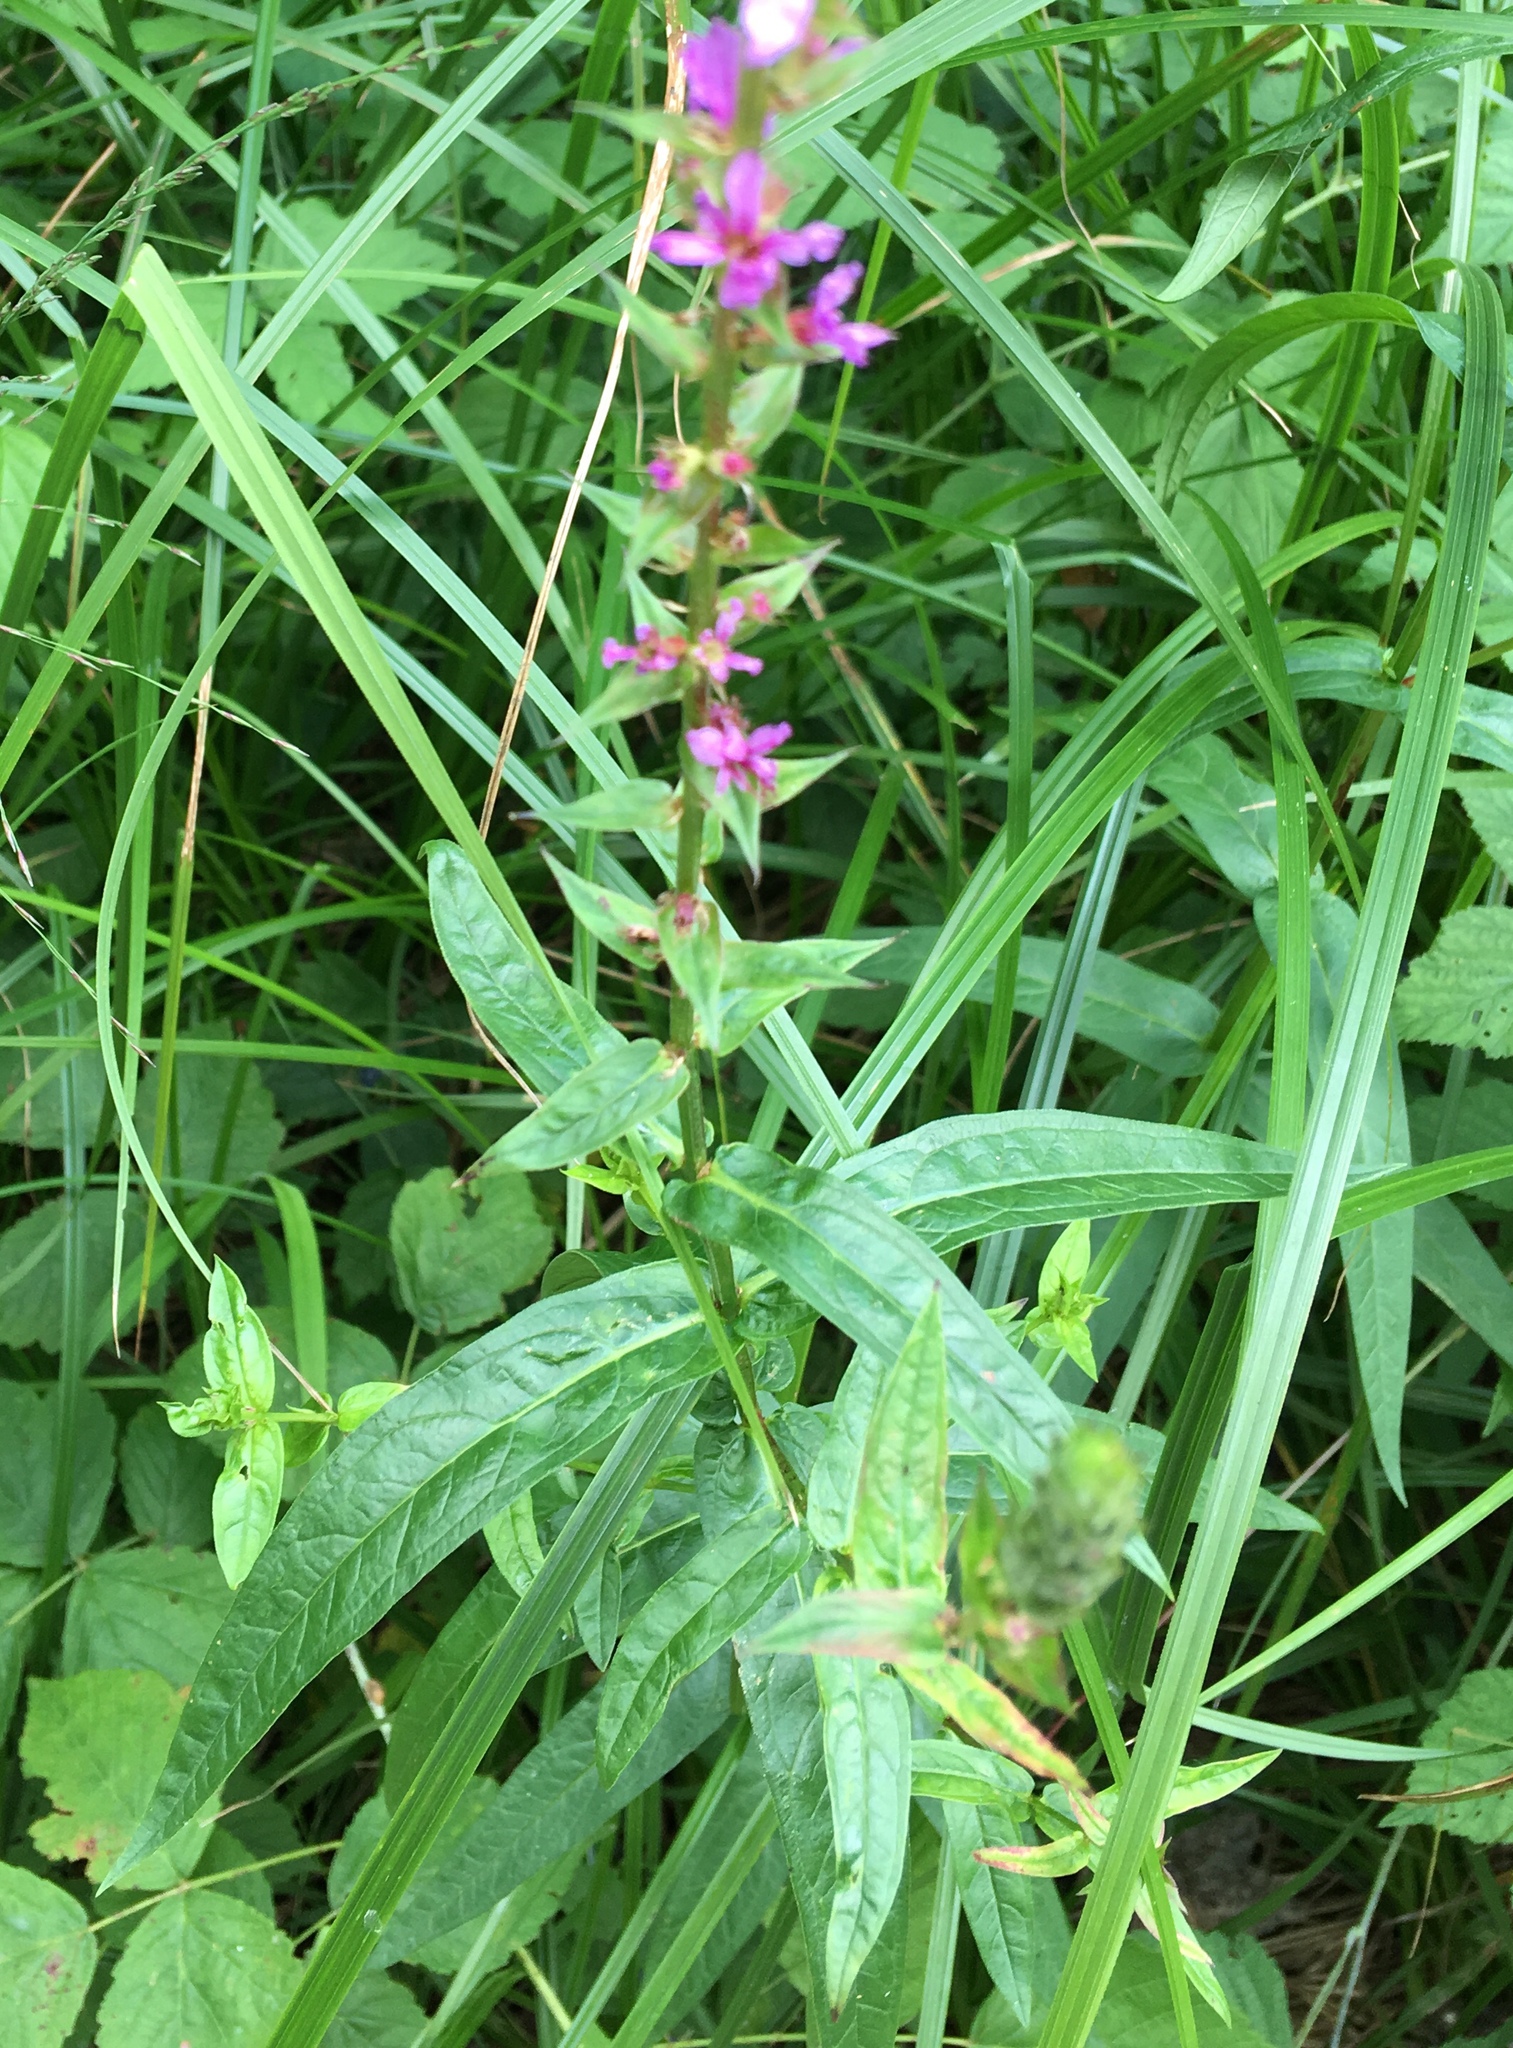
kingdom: Plantae
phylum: Tracheophyta
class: Magnoliopsida
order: Myrtales
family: Lythraceae
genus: Lythrum
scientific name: Lythrum salicaria
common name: Purple loosestrife
